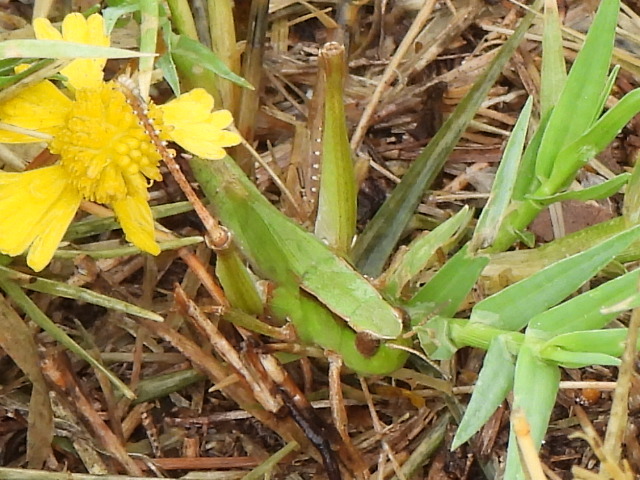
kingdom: Animalia
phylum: Arthropoda
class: Insecta
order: Orthoptera
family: Acrididae
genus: Dichromorpha
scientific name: Dichromorpha viridis
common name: Short-winged green grasshopper
